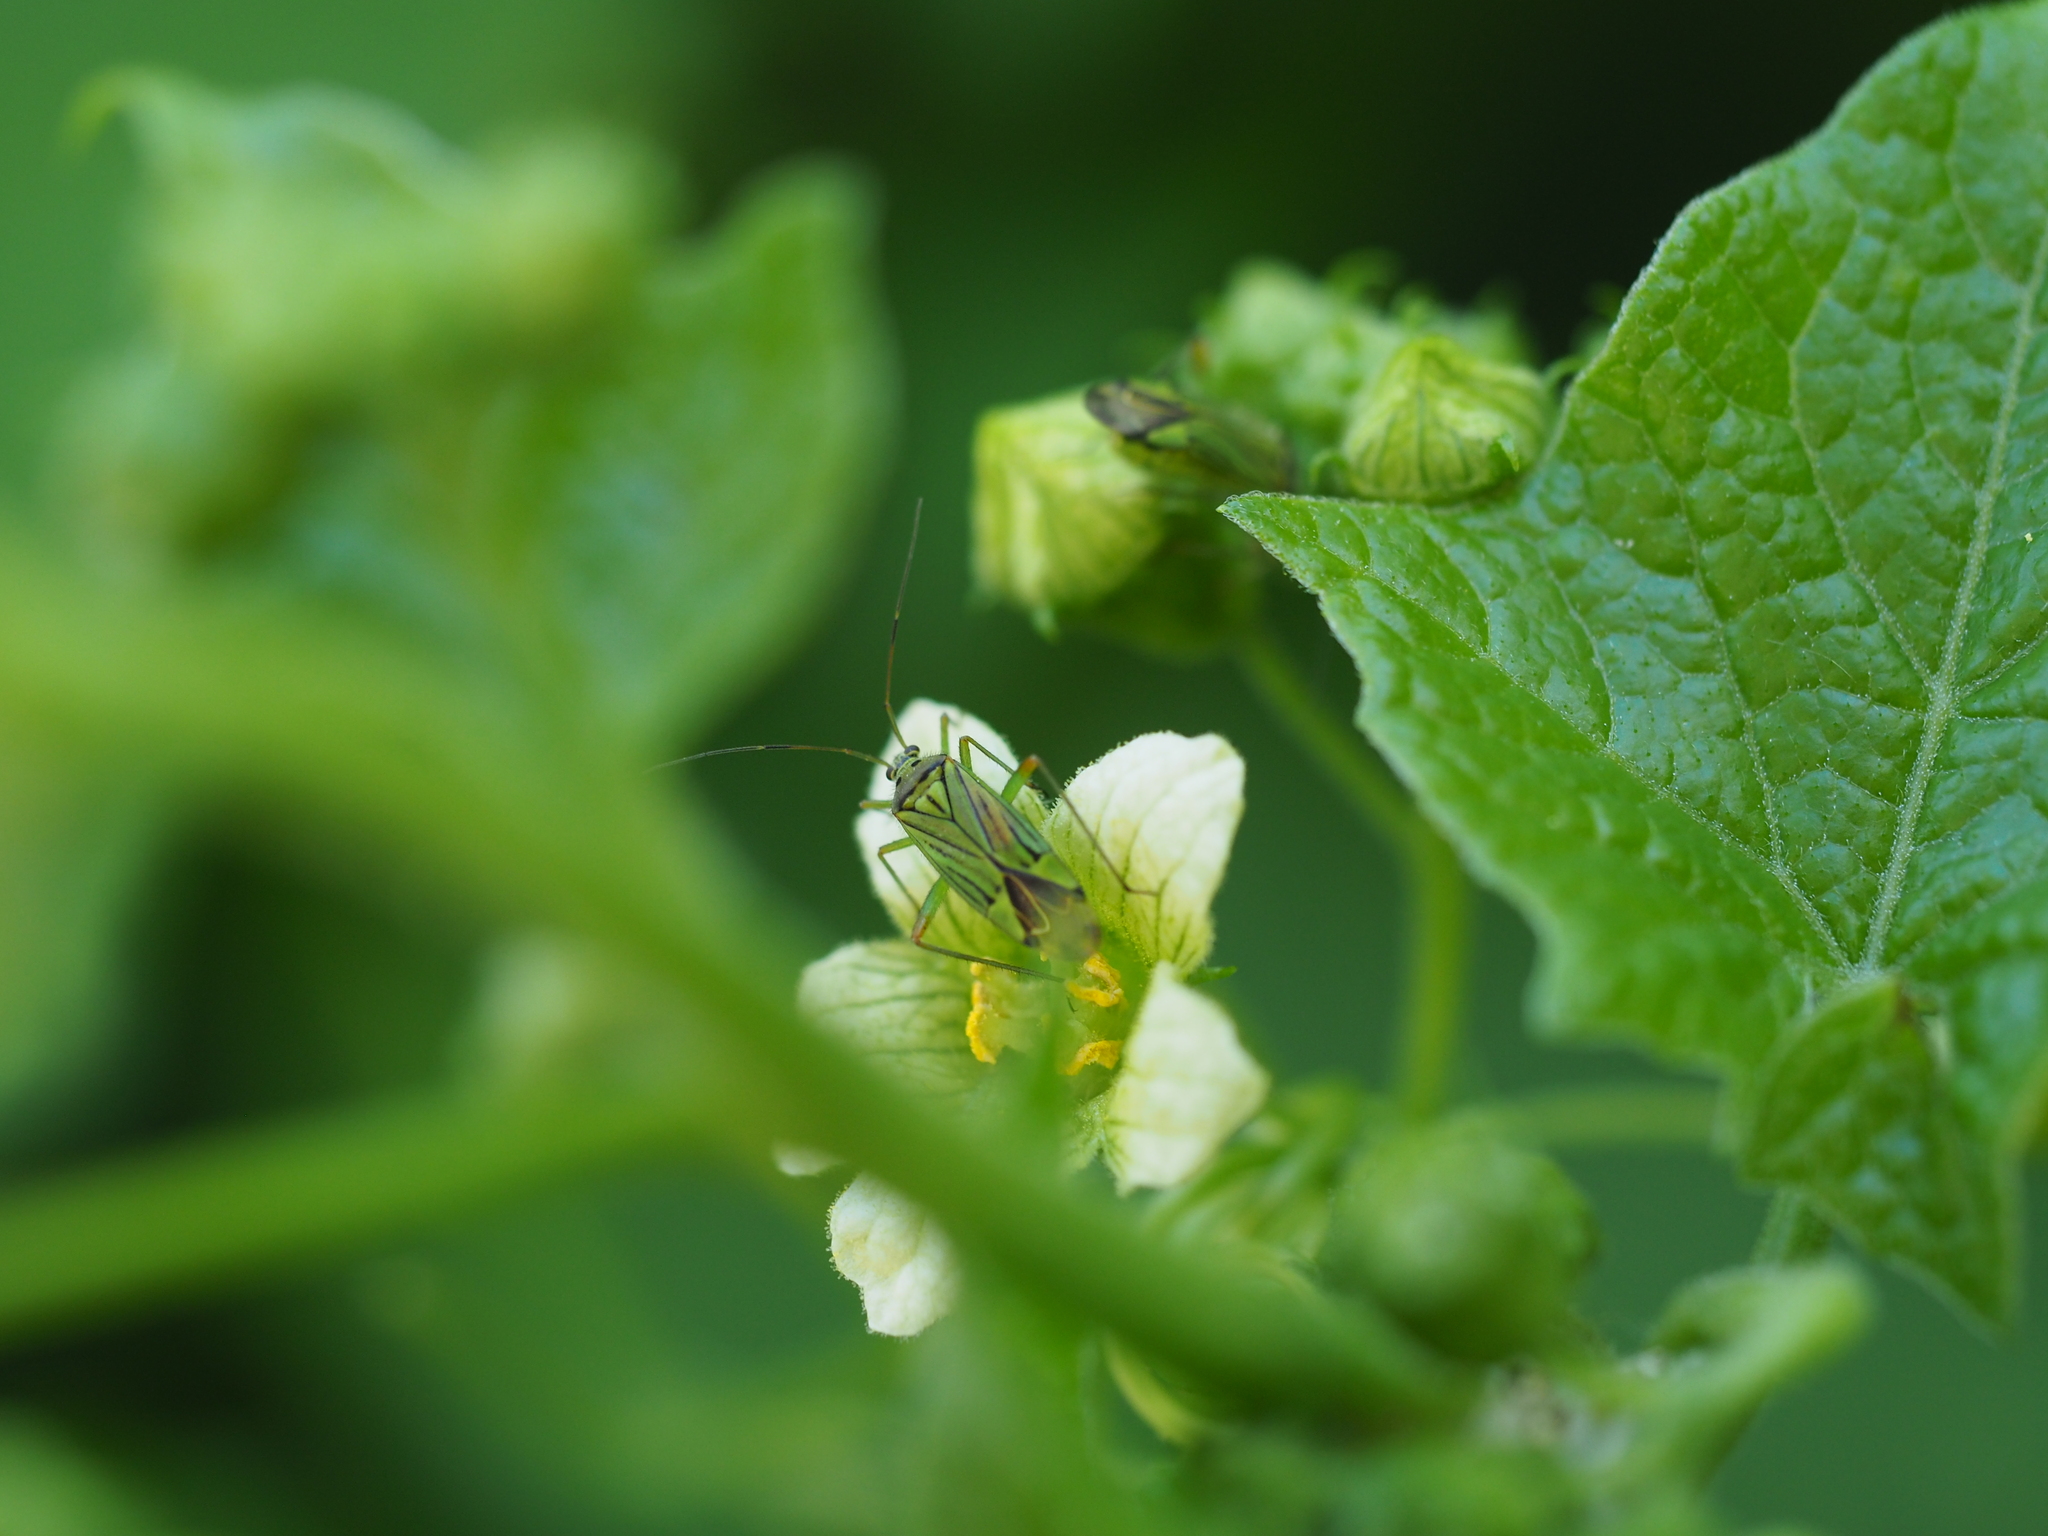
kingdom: Animalia
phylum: Arthropoda
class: Insecta
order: Hemiptera
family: Miridae
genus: Mermitelocerus
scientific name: Mermitelocerus schmidtii
